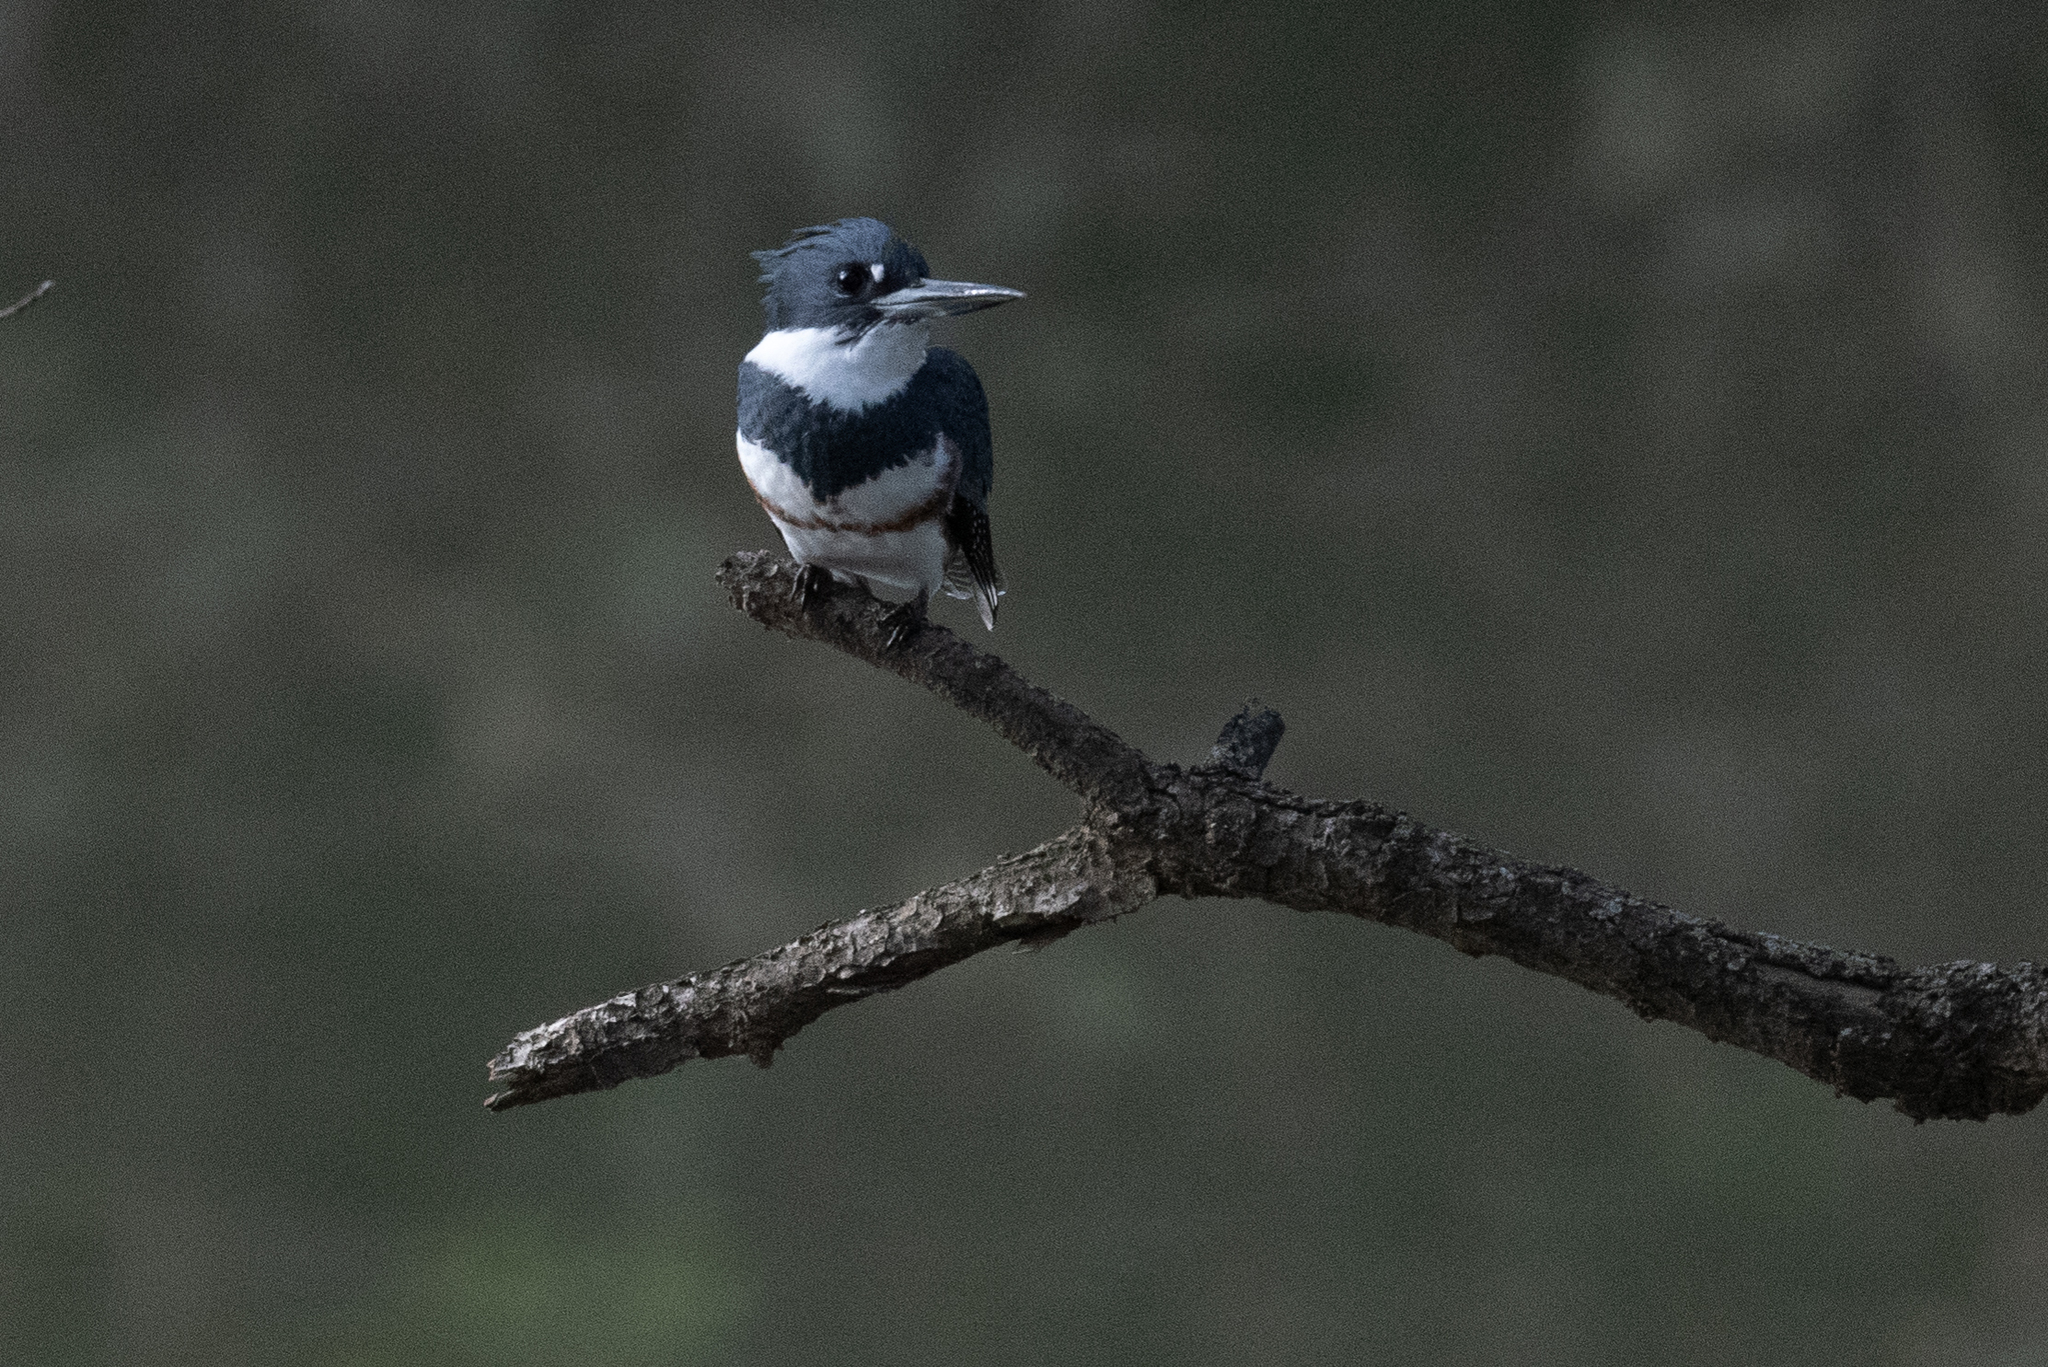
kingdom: Animalia
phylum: Chordata
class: Aves
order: Coraciiformes
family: Alcedinidae
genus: Megaceryle
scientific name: Megaceryle alcyon
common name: Belted kingfisher
